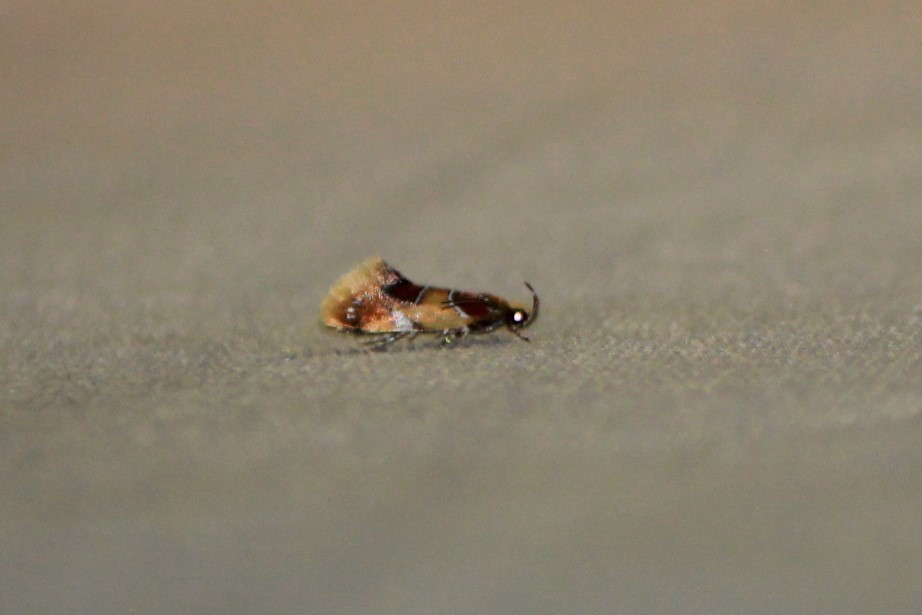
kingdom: Animalia
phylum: Arthropoda
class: Insecta
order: Lepidoptera
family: Oecophoridae
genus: Callima
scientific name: Callima argenticinctella
